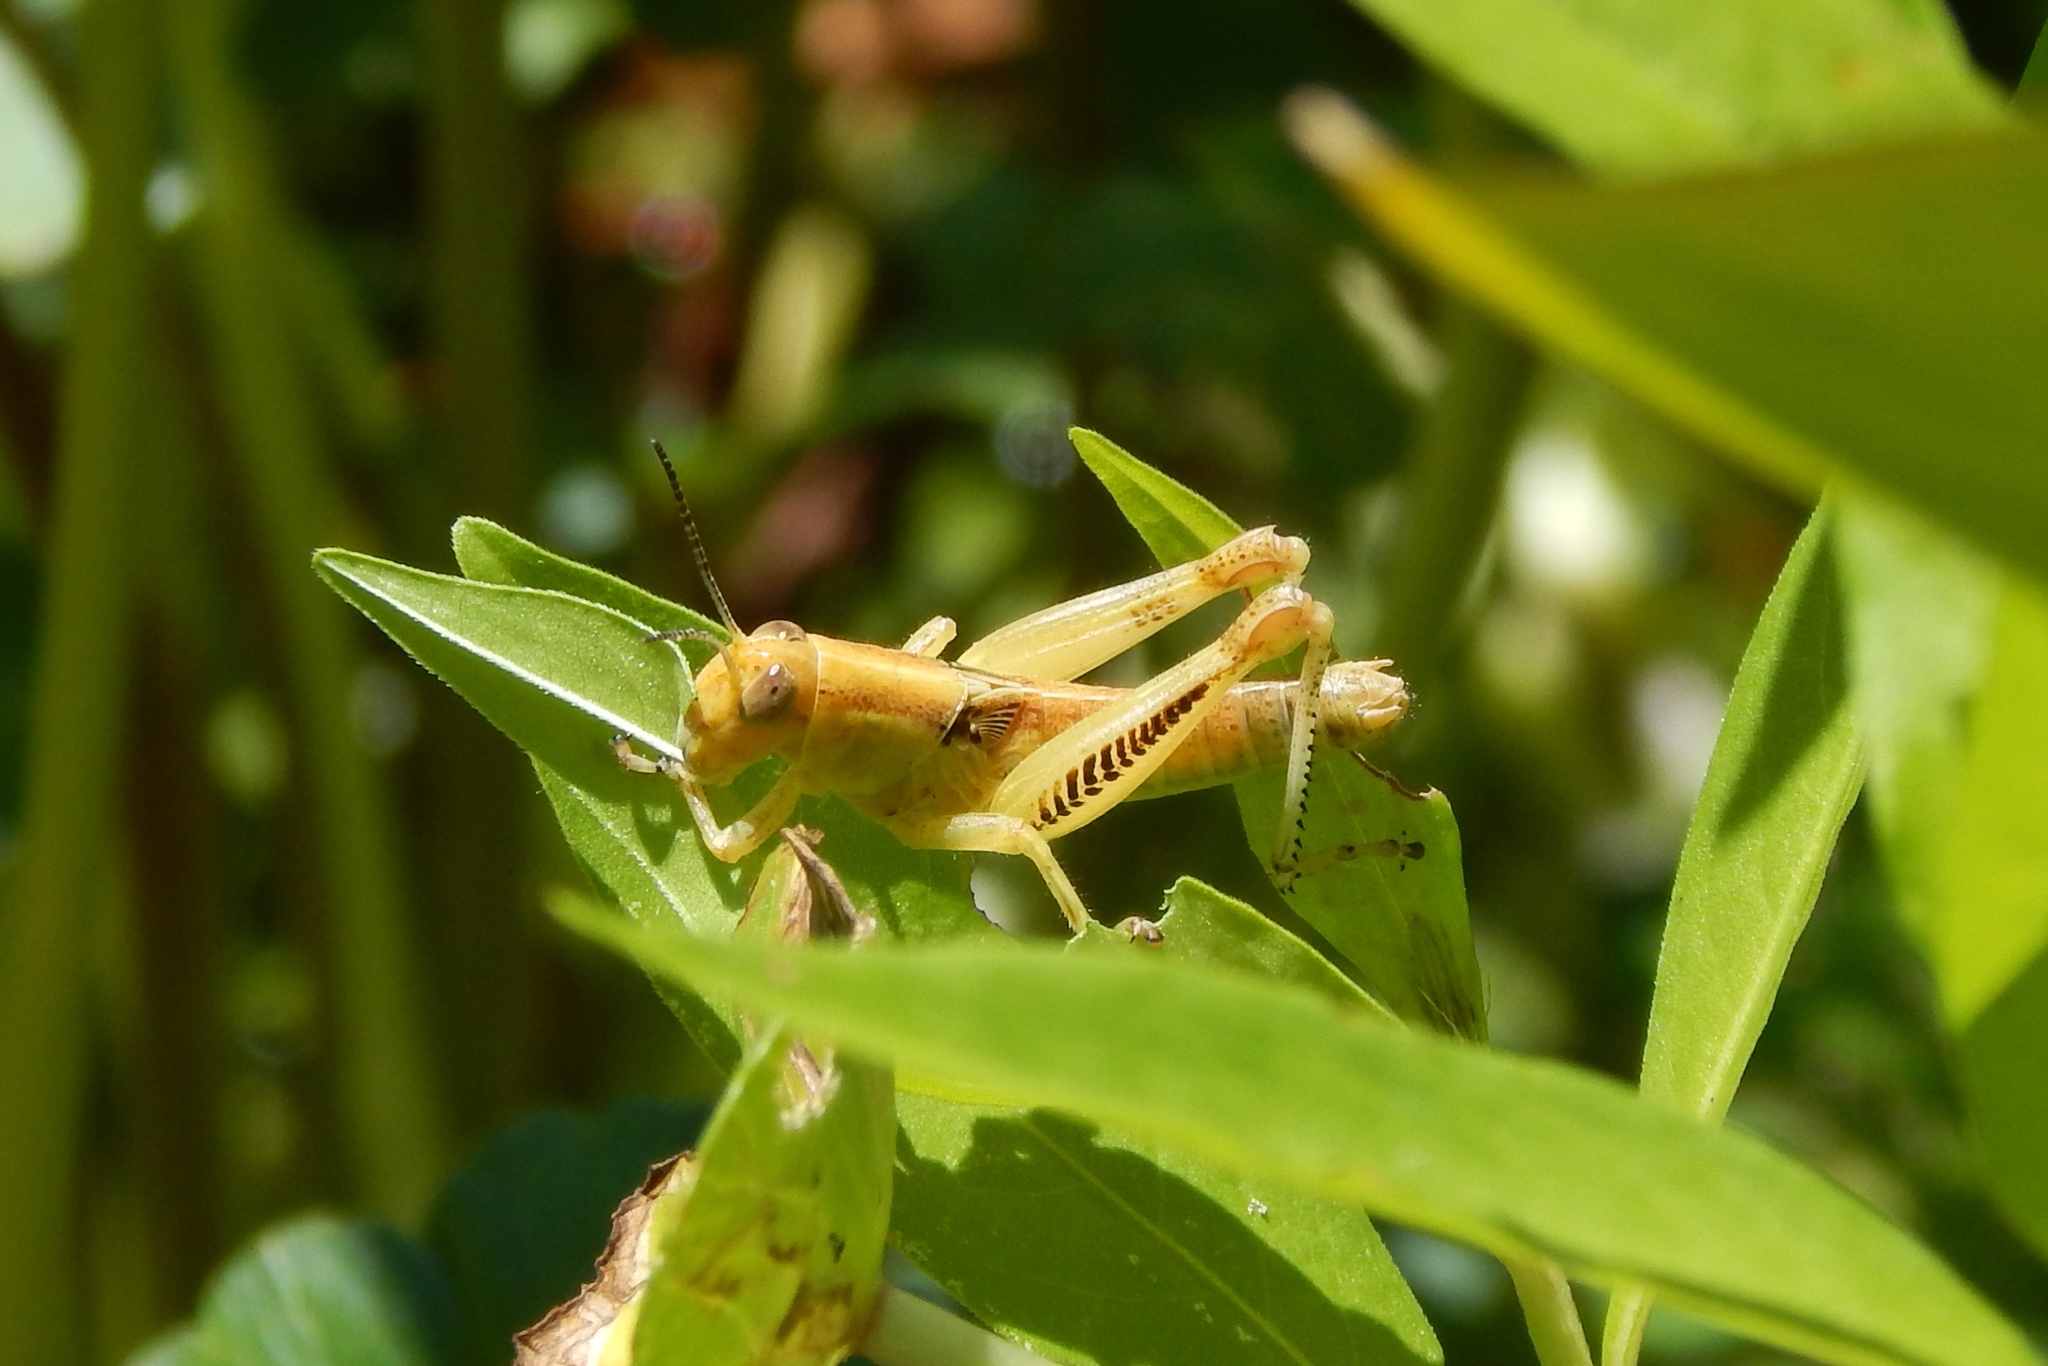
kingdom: Animalia
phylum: Arthropoda
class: Insecta
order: Orthoptera
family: Acrididae
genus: Melanoplus
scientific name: Melanoplus differentialis
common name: Differential grasshopper
